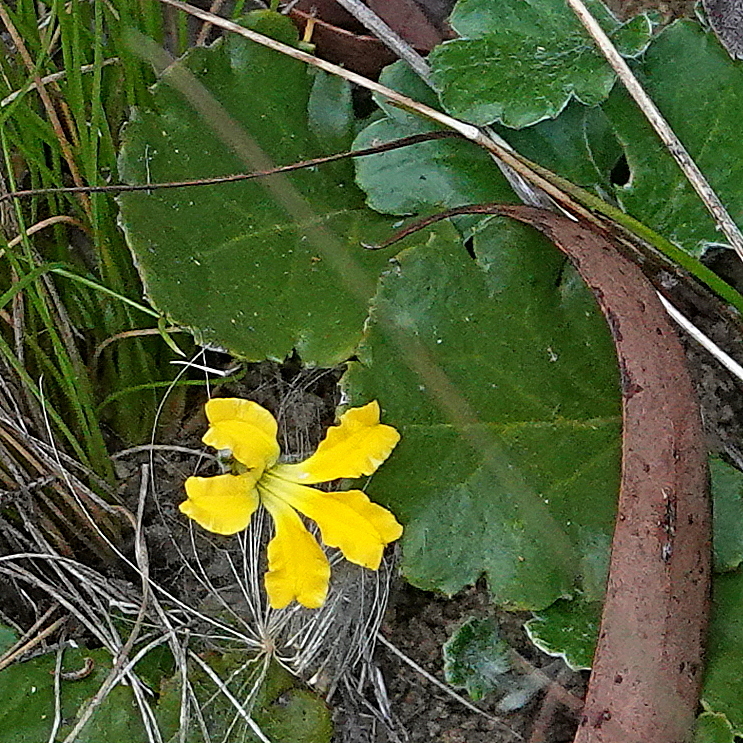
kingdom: Plantae
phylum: Tracheophyta
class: Magnoliopsida
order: Asterales
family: Goodeniaceae
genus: Goodenia
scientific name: Goodenia hederacea
